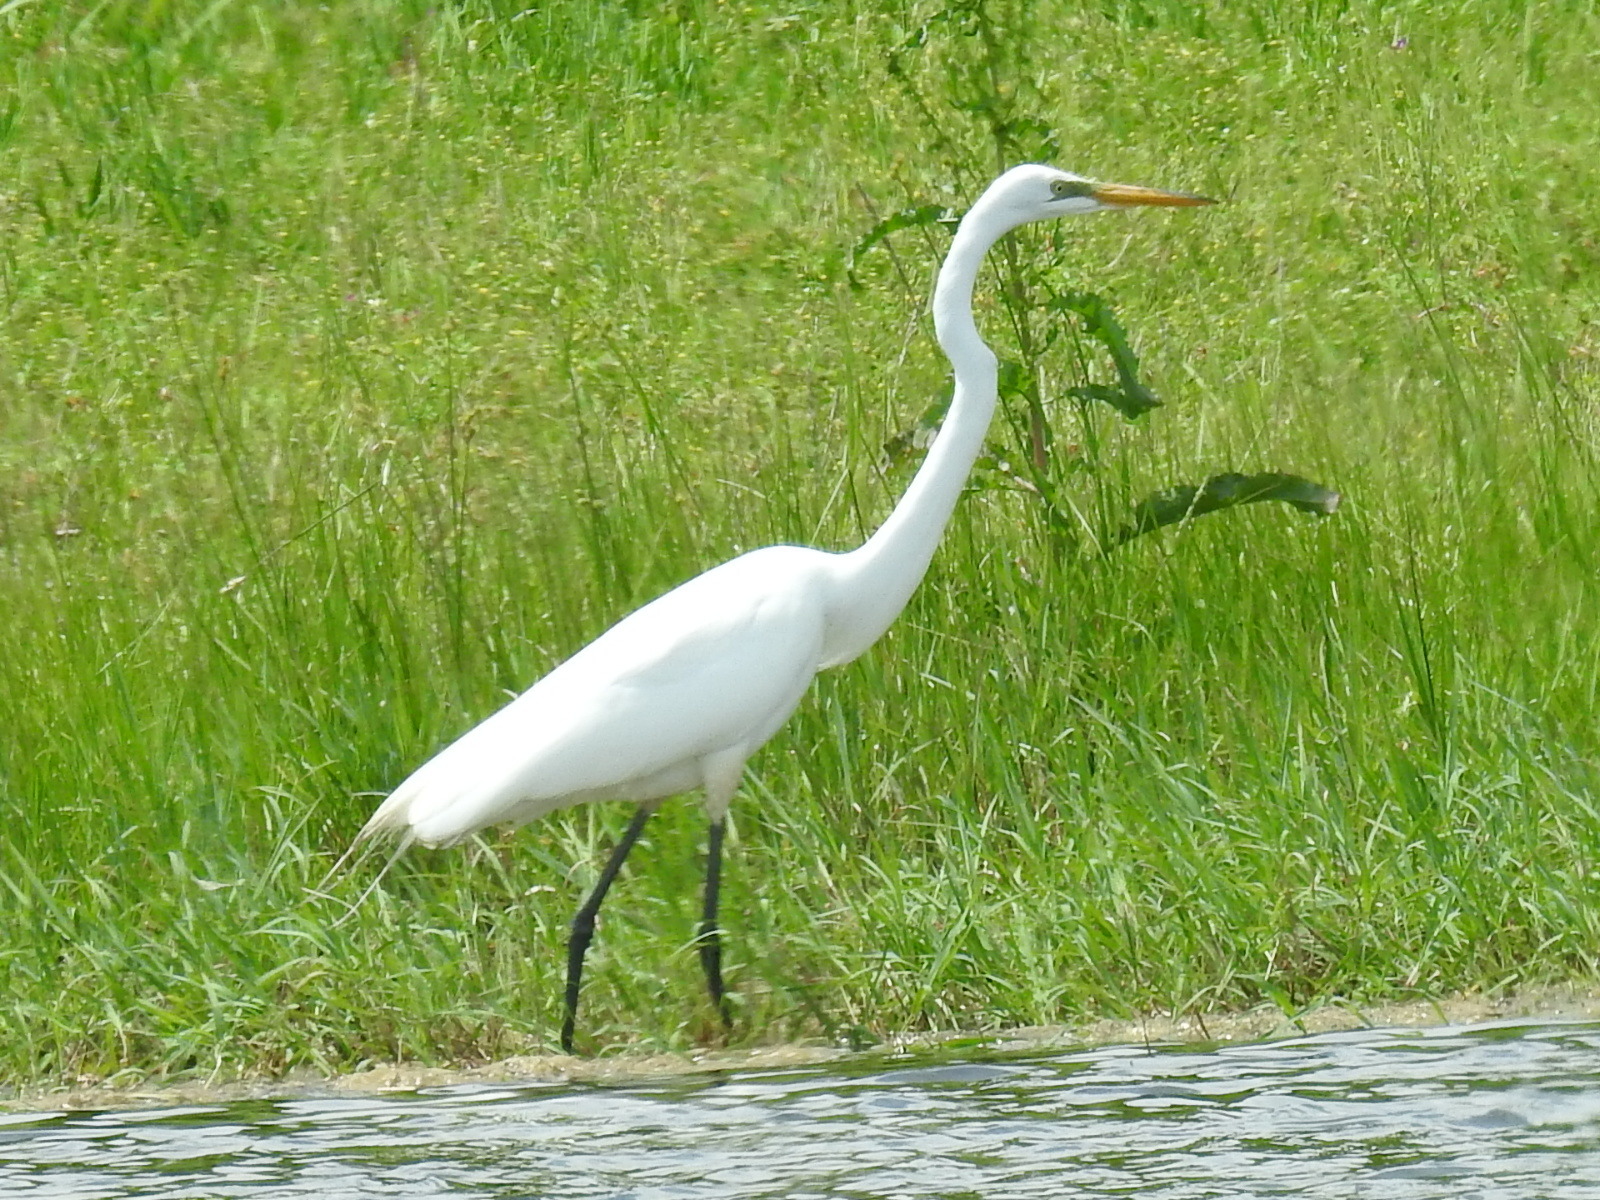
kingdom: Animalia
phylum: Chordata
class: Aves
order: Pelecaniformes
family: Ardeidae
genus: Ardea
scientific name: Ardea alba
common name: Great egret
